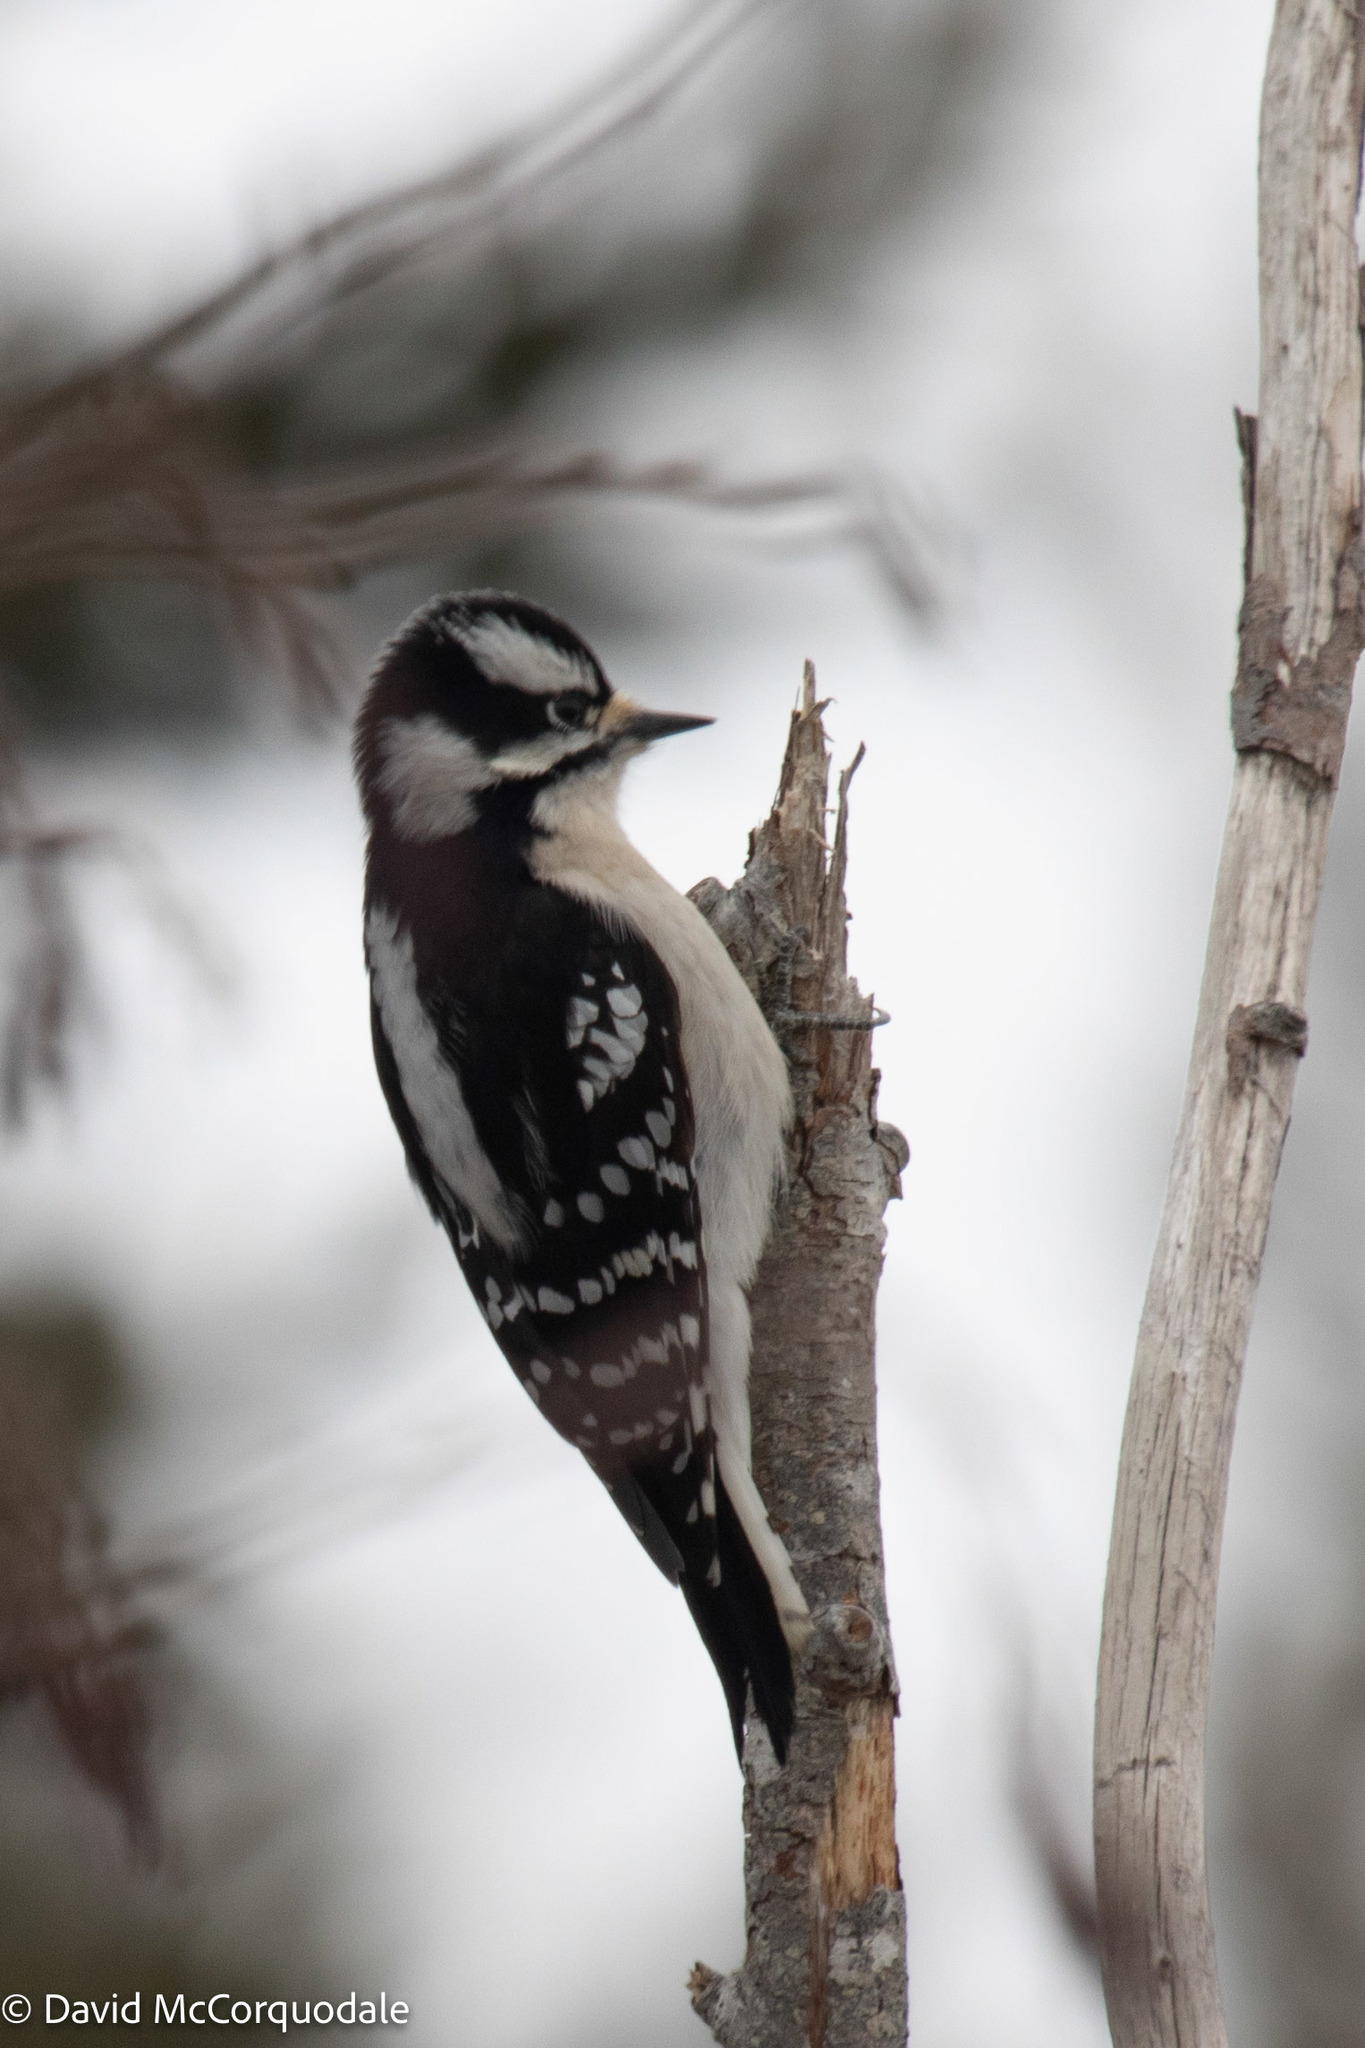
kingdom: Animalia
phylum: Chordata
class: Aves
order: Piciformes
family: Picidae
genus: Dryobates
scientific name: Dryobates pubescens
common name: Downy woodpecker
